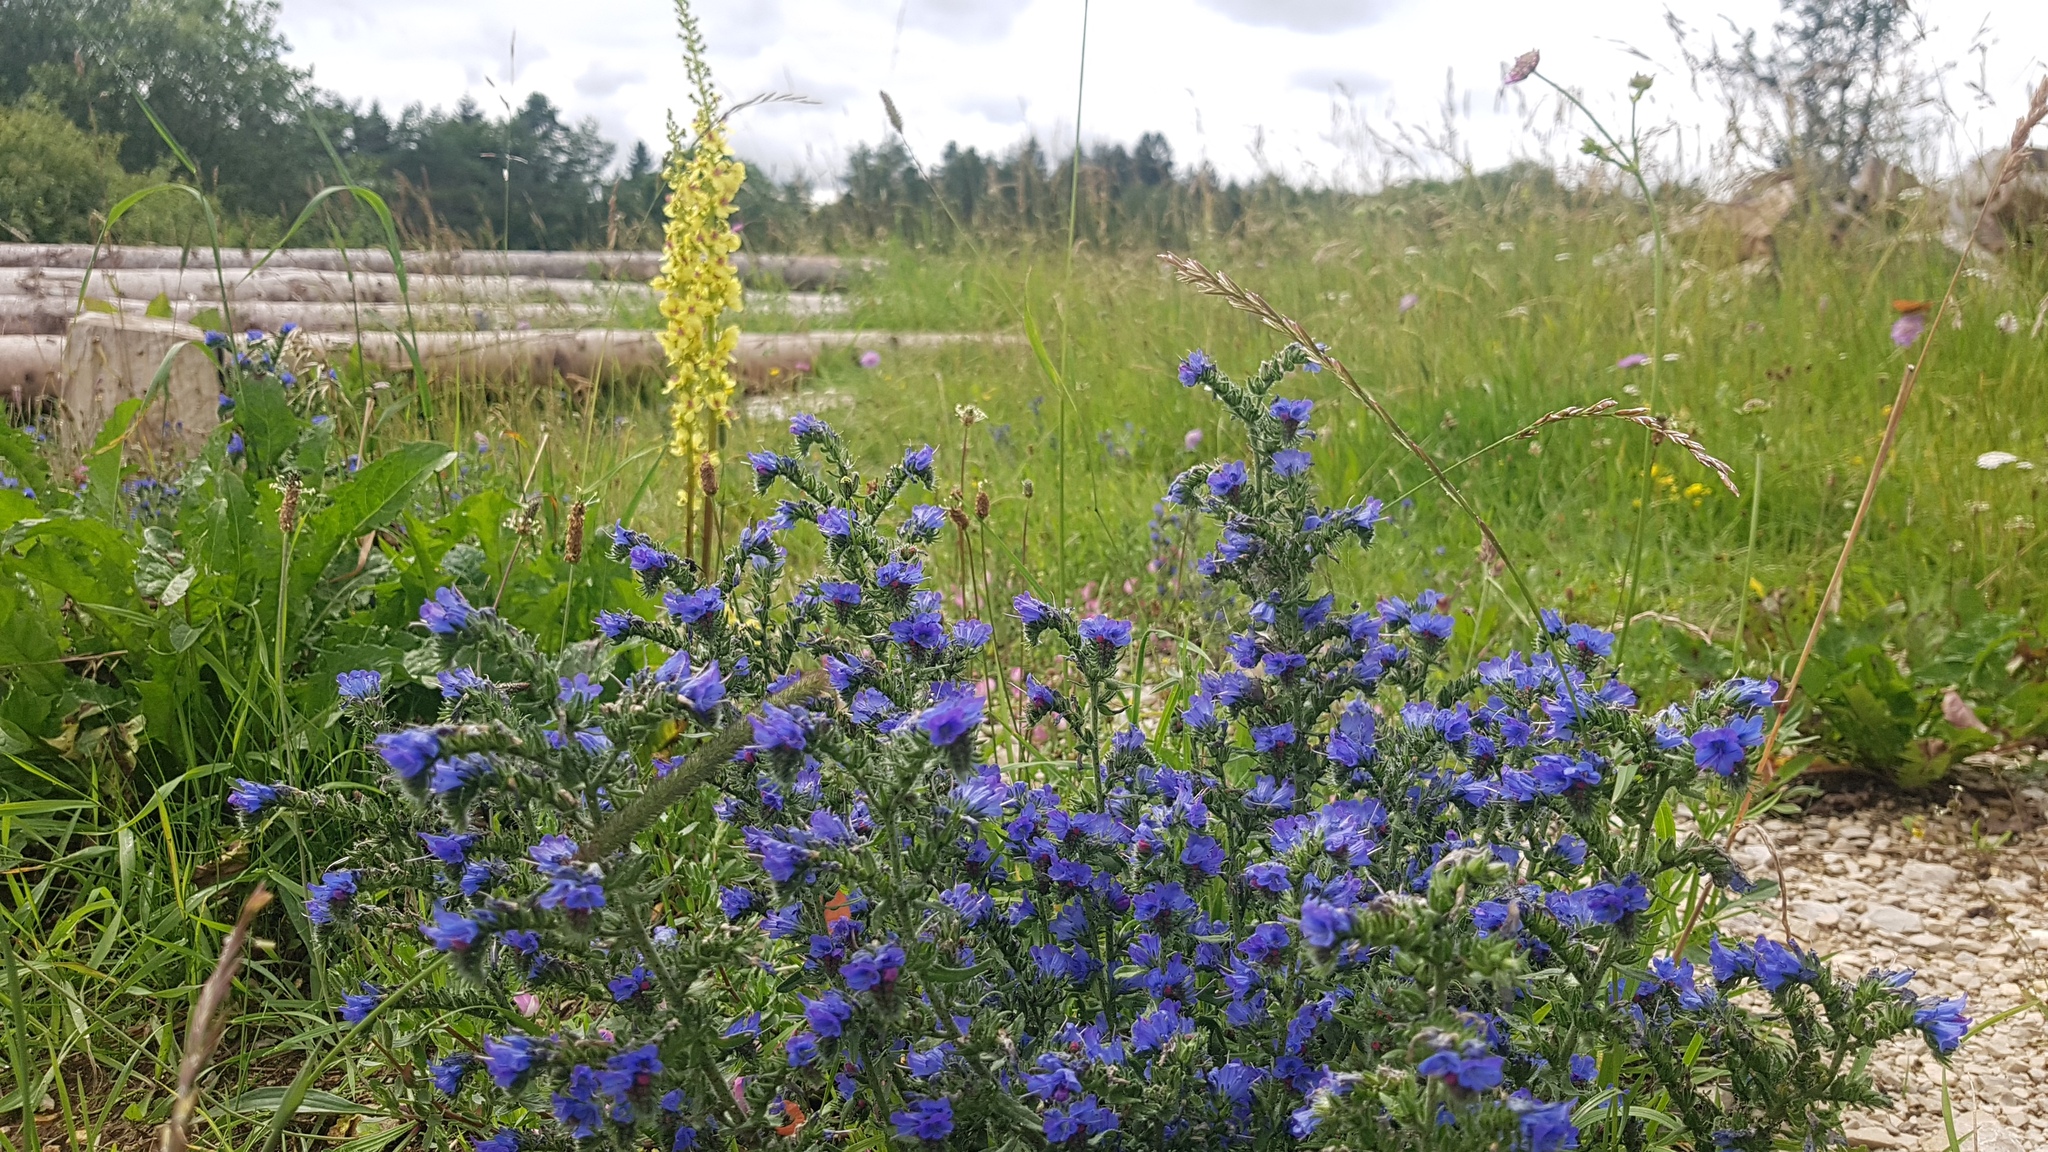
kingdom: Plantae
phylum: Tracheophyta
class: Magnoliopsida
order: Boraginales
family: Boraginaceae
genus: Echium
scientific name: Echium vulgare
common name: Common viper's bugloss
